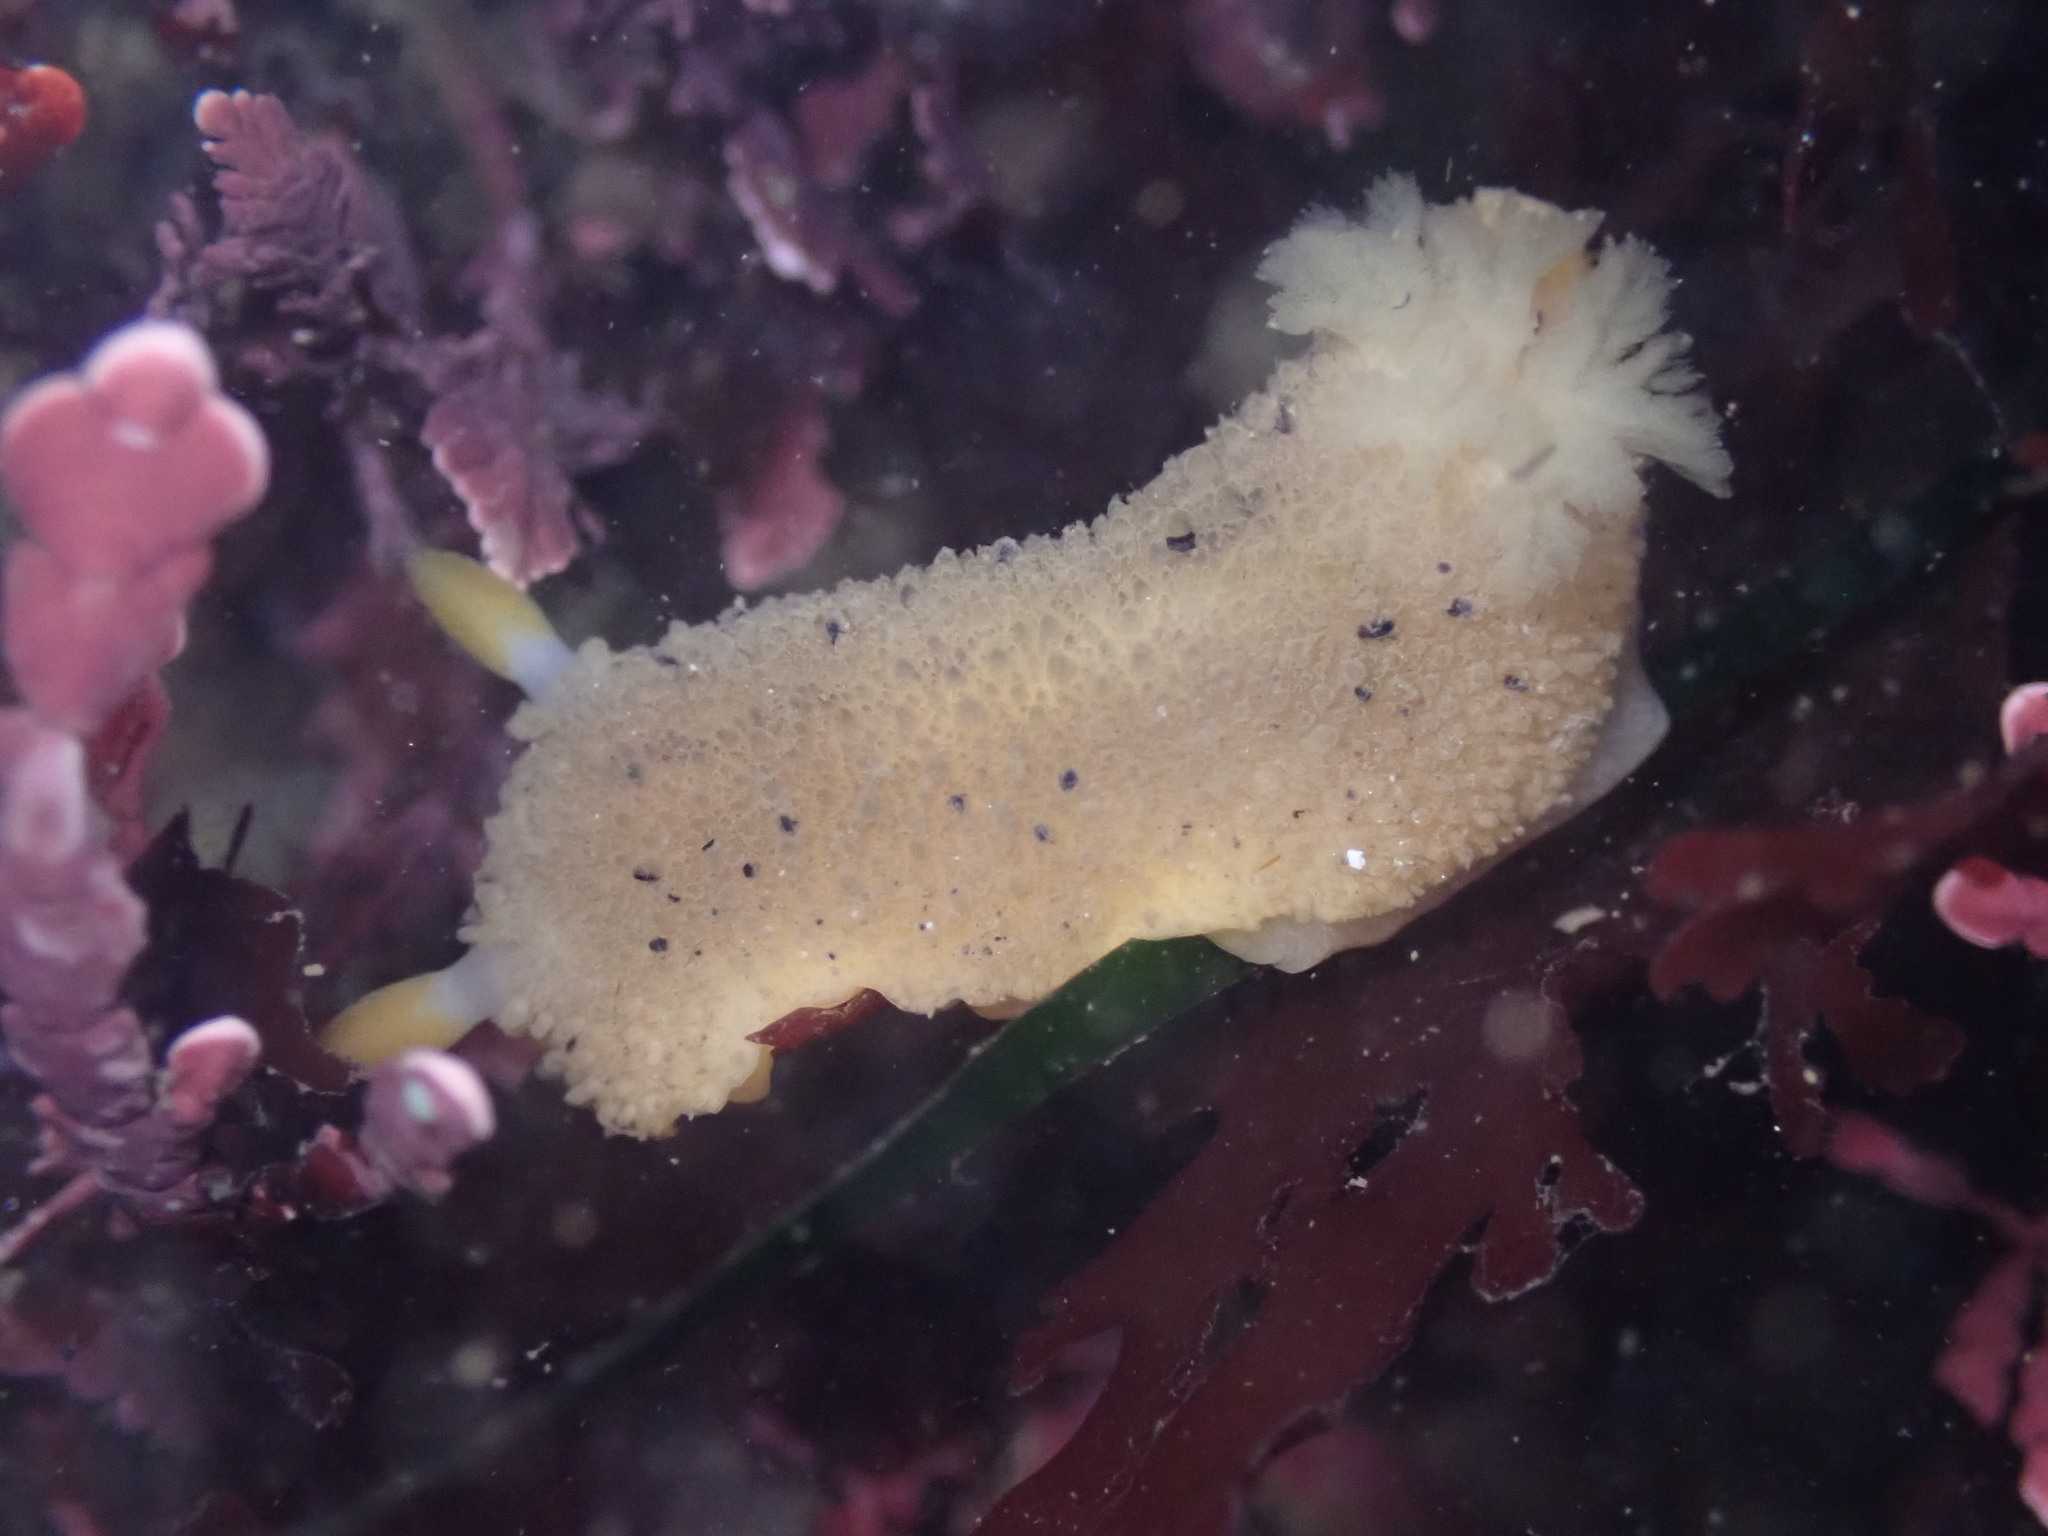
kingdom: Animalia
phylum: Mollusca
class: Gastropoda
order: Nudibranchia
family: Dorididae
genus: Doris
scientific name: Doris montereyensis
